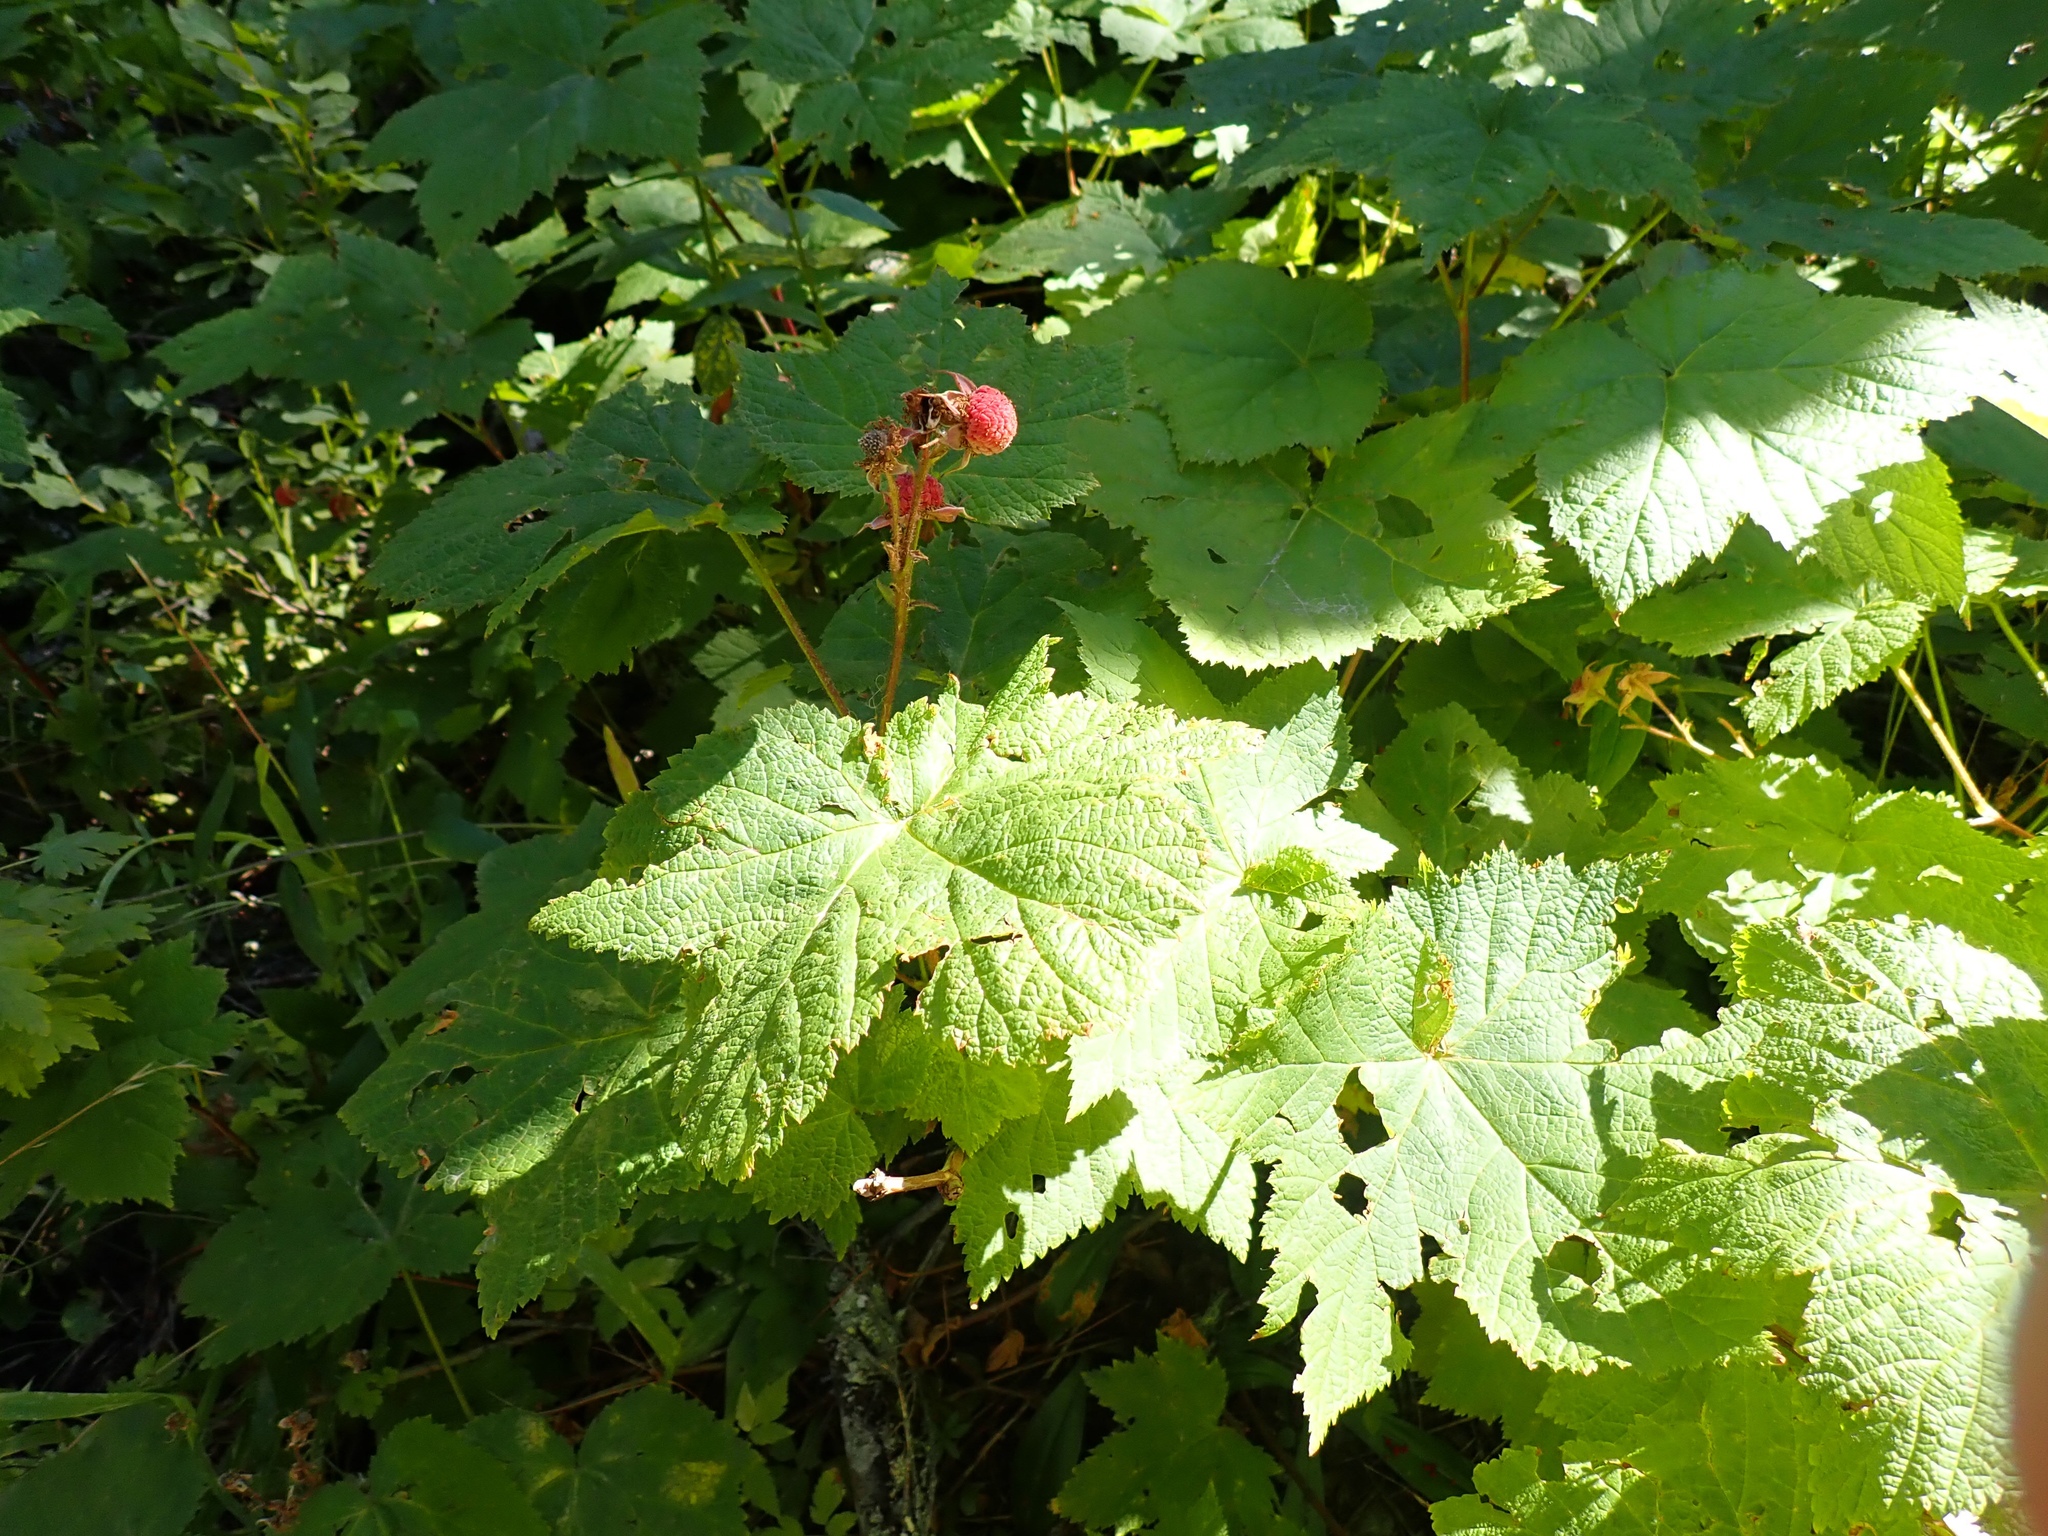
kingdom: Plantae
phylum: Tracheophyta
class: Magnoliopsida
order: Rosales
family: Rosaceae
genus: Rubus
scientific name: Rubus parviflorus
